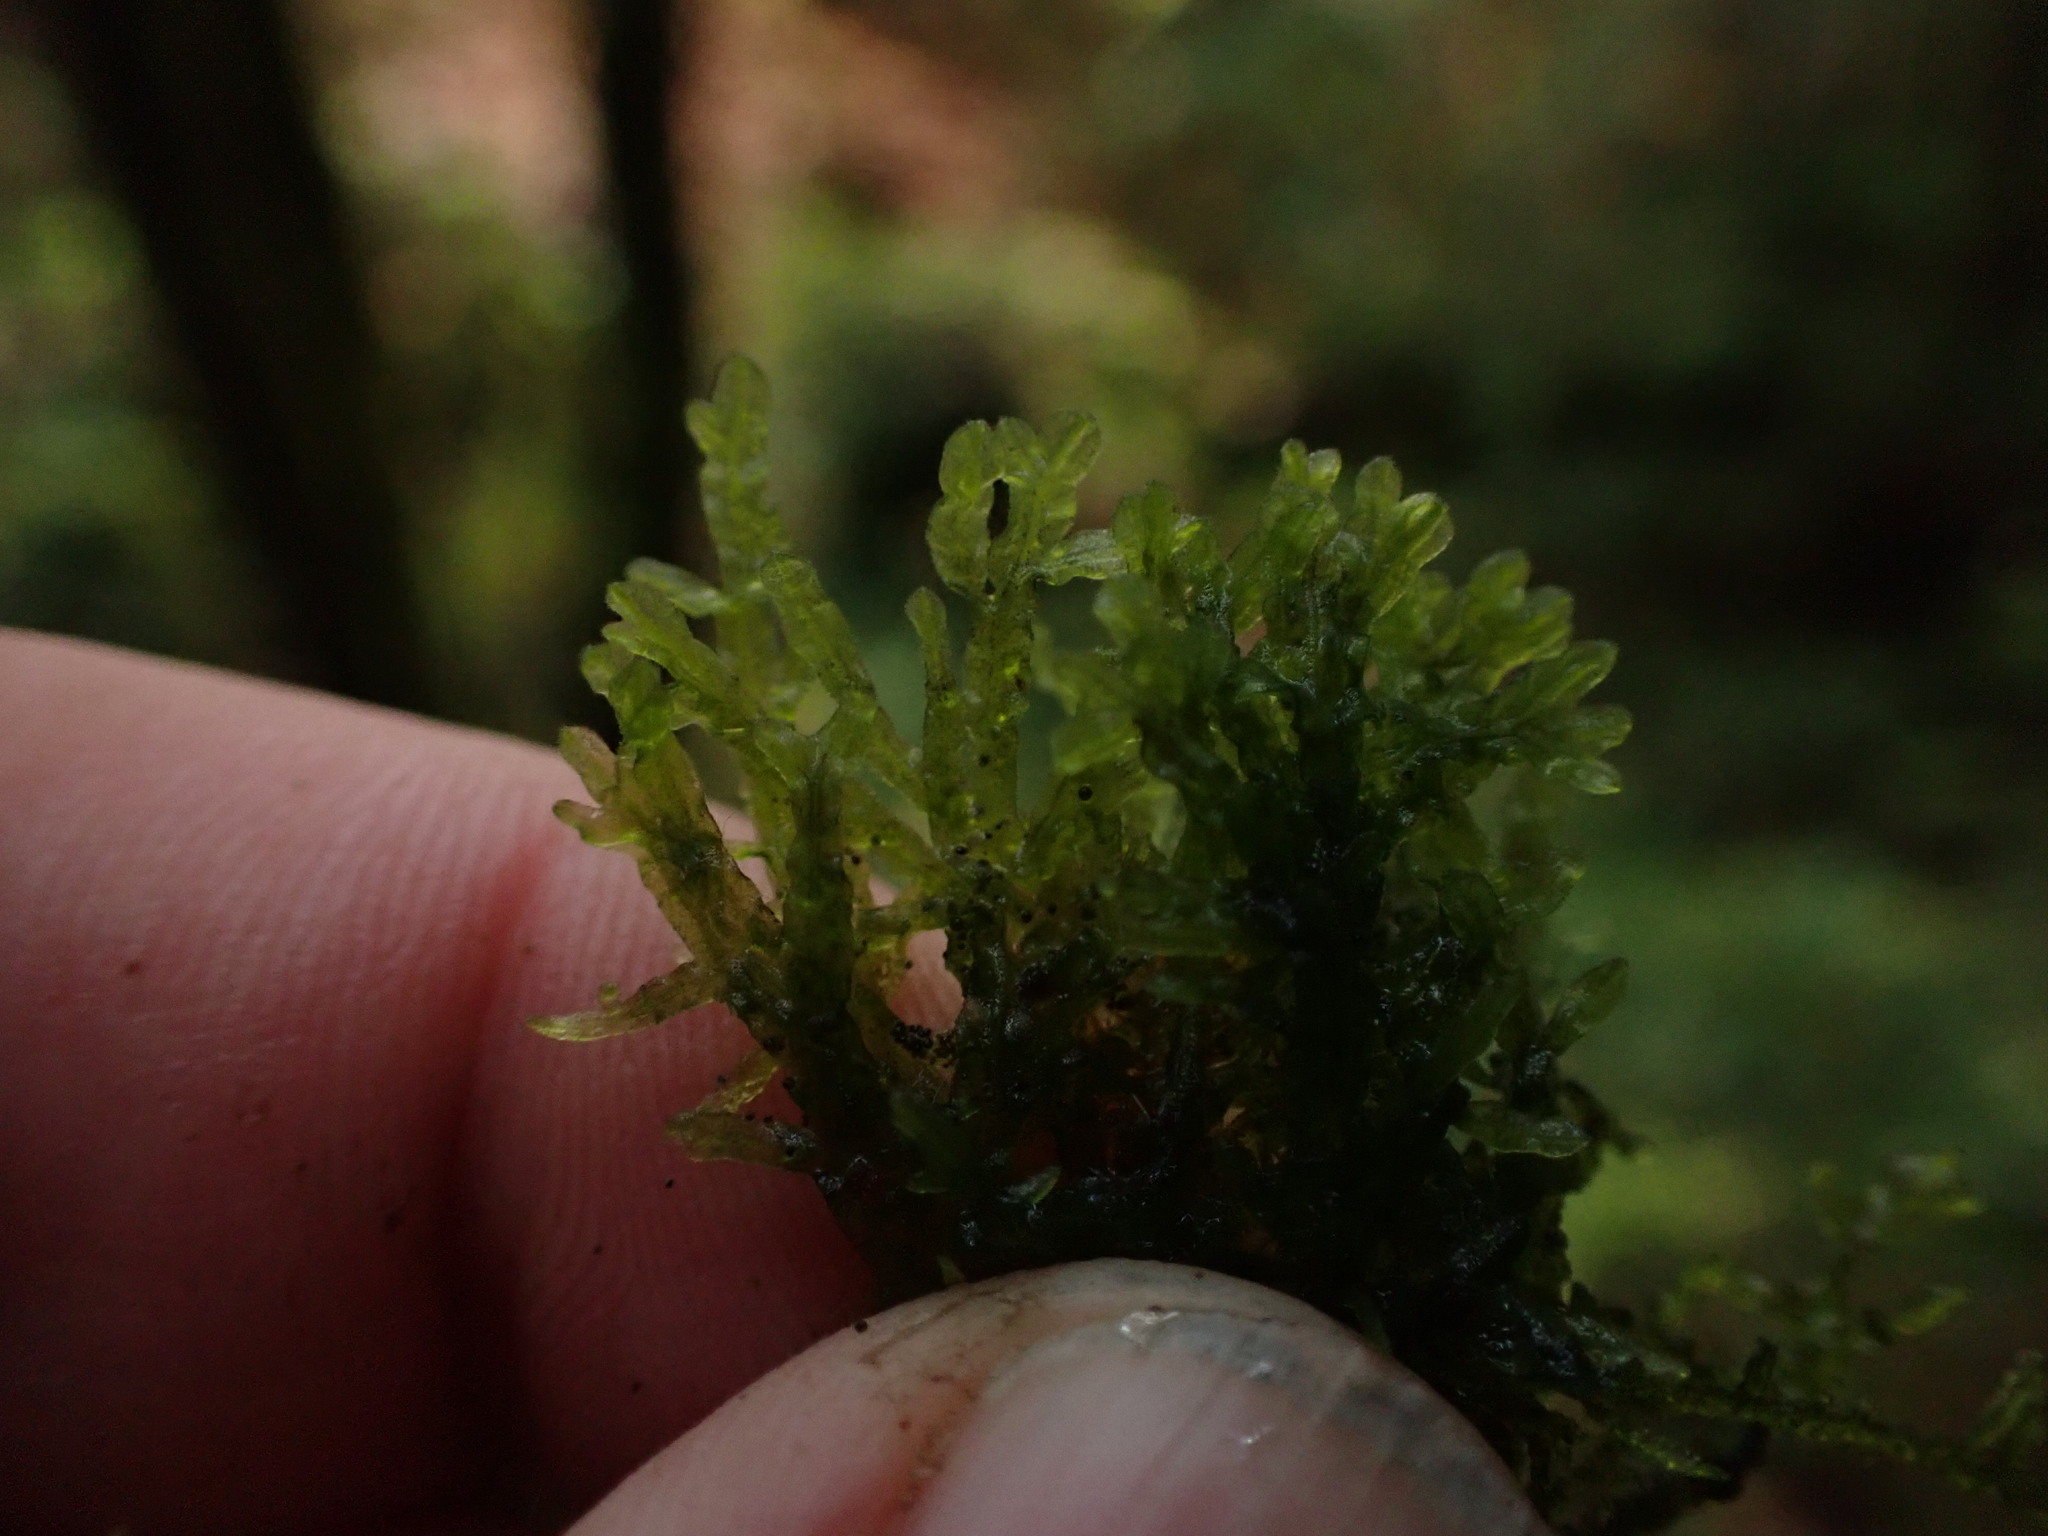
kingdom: Plantae
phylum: Marchantiophyta
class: Jungermanniopsida
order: Metzgeriales
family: Metzgeriaceae
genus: Metzgeria
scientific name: Metzgeria pubescens
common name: Downy veilwort
